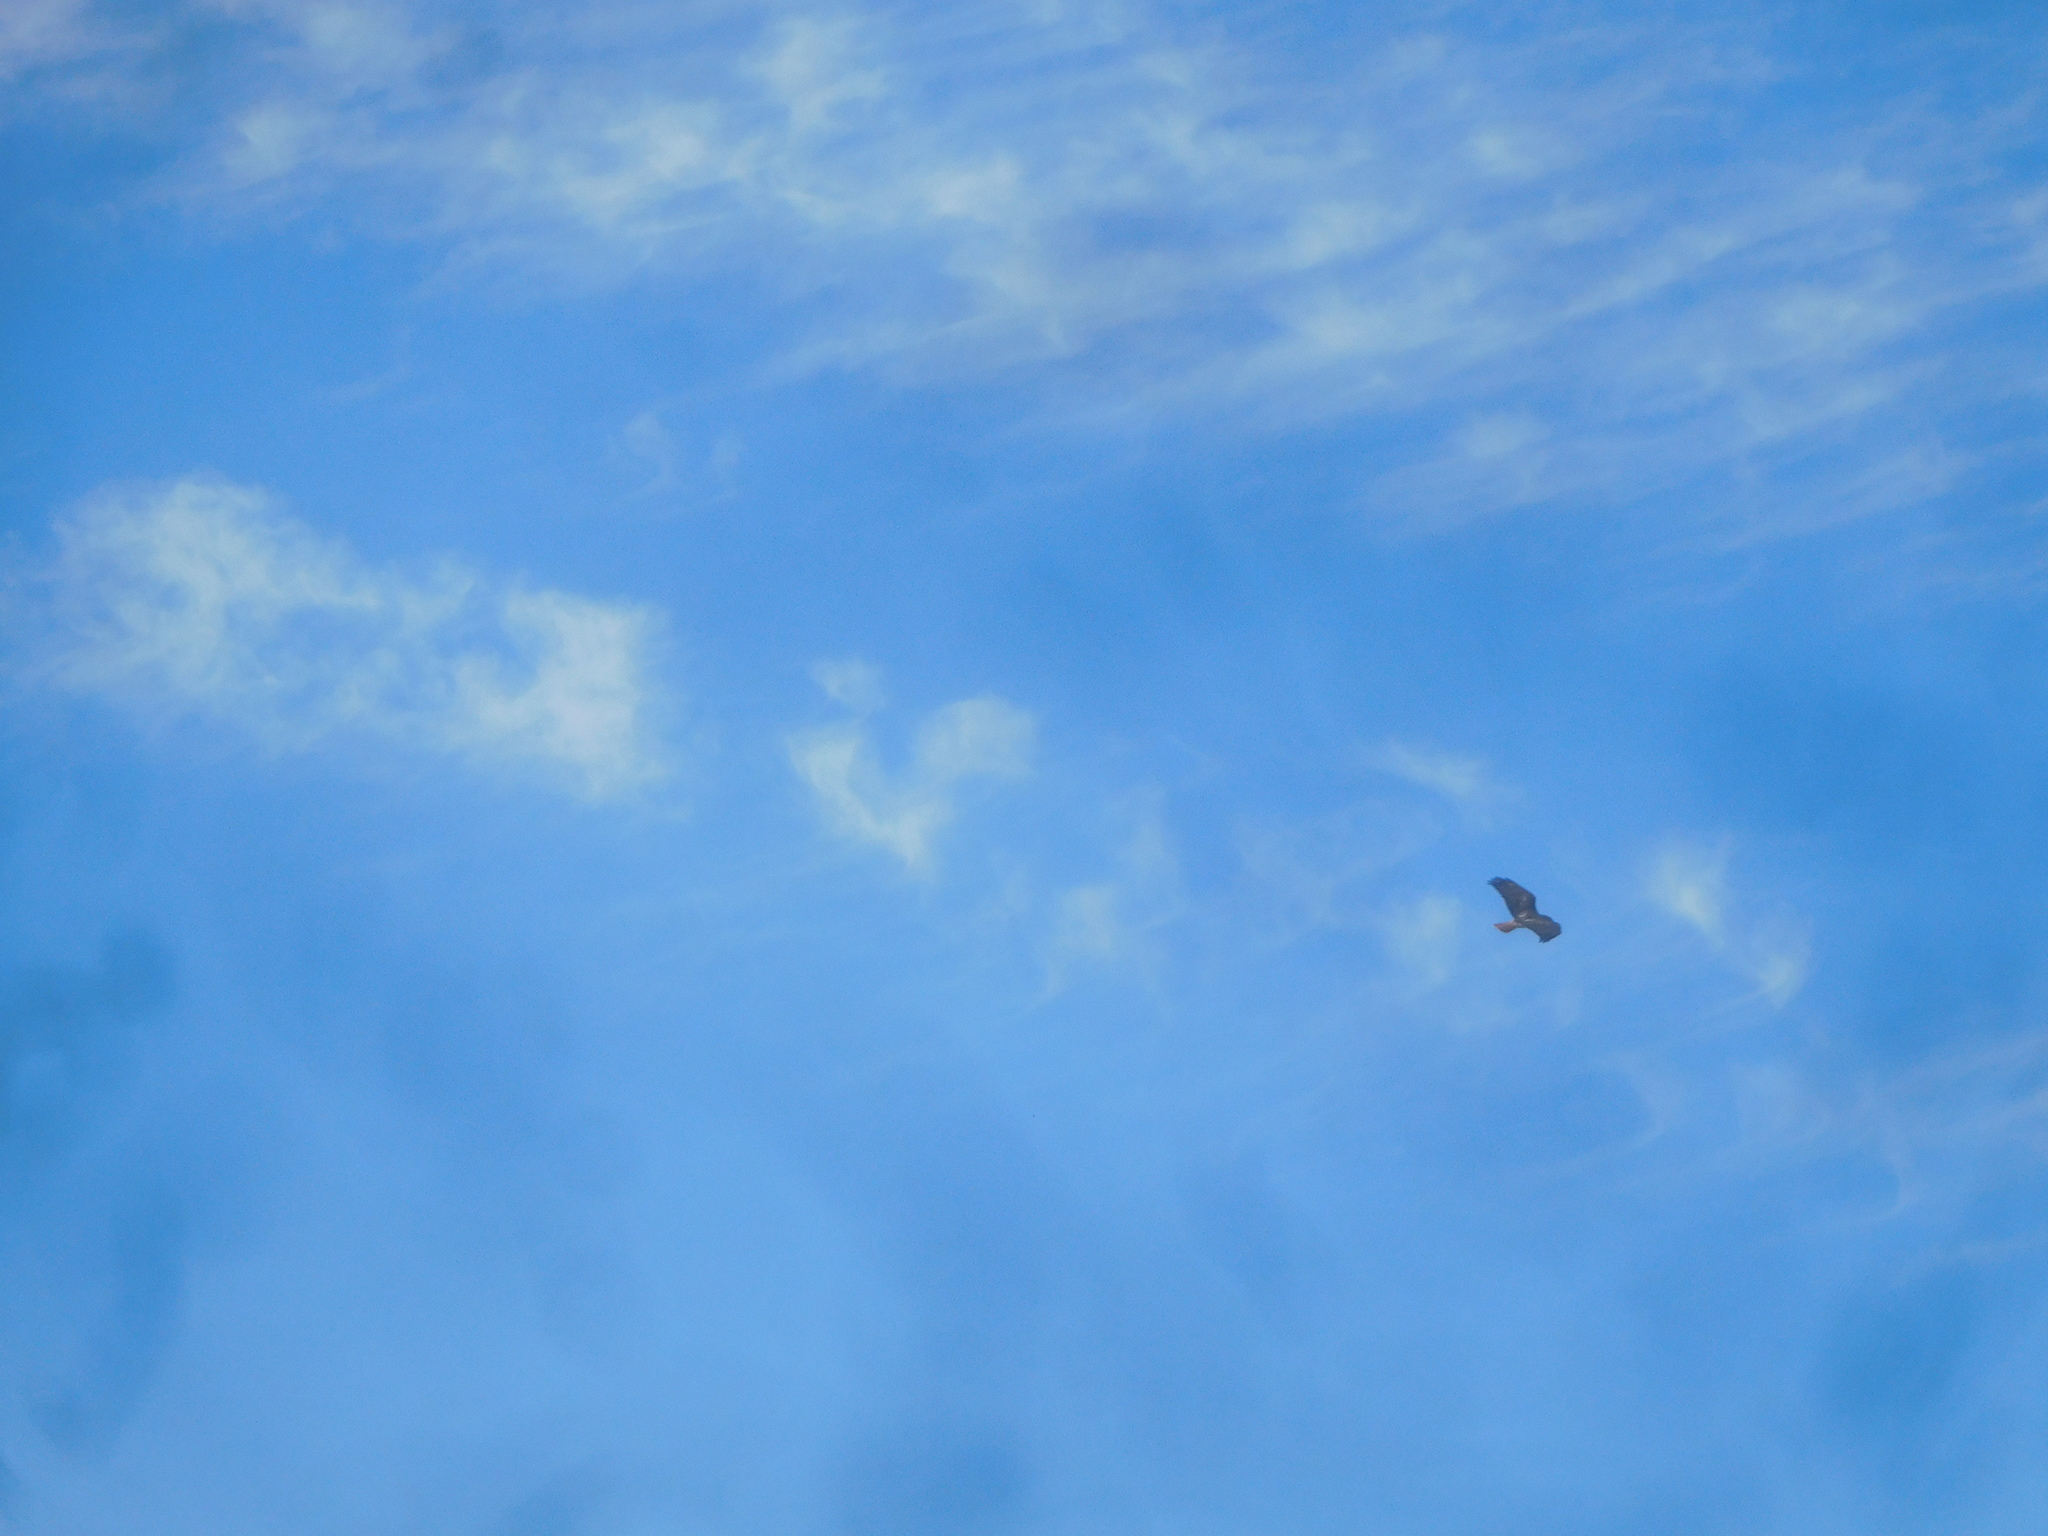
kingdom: Animalia
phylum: Chordata
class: Aves
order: Accipitriformes
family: Accipitridae
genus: Buteo
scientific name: Buteo jamaicensis
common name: Red-tailed hawk
